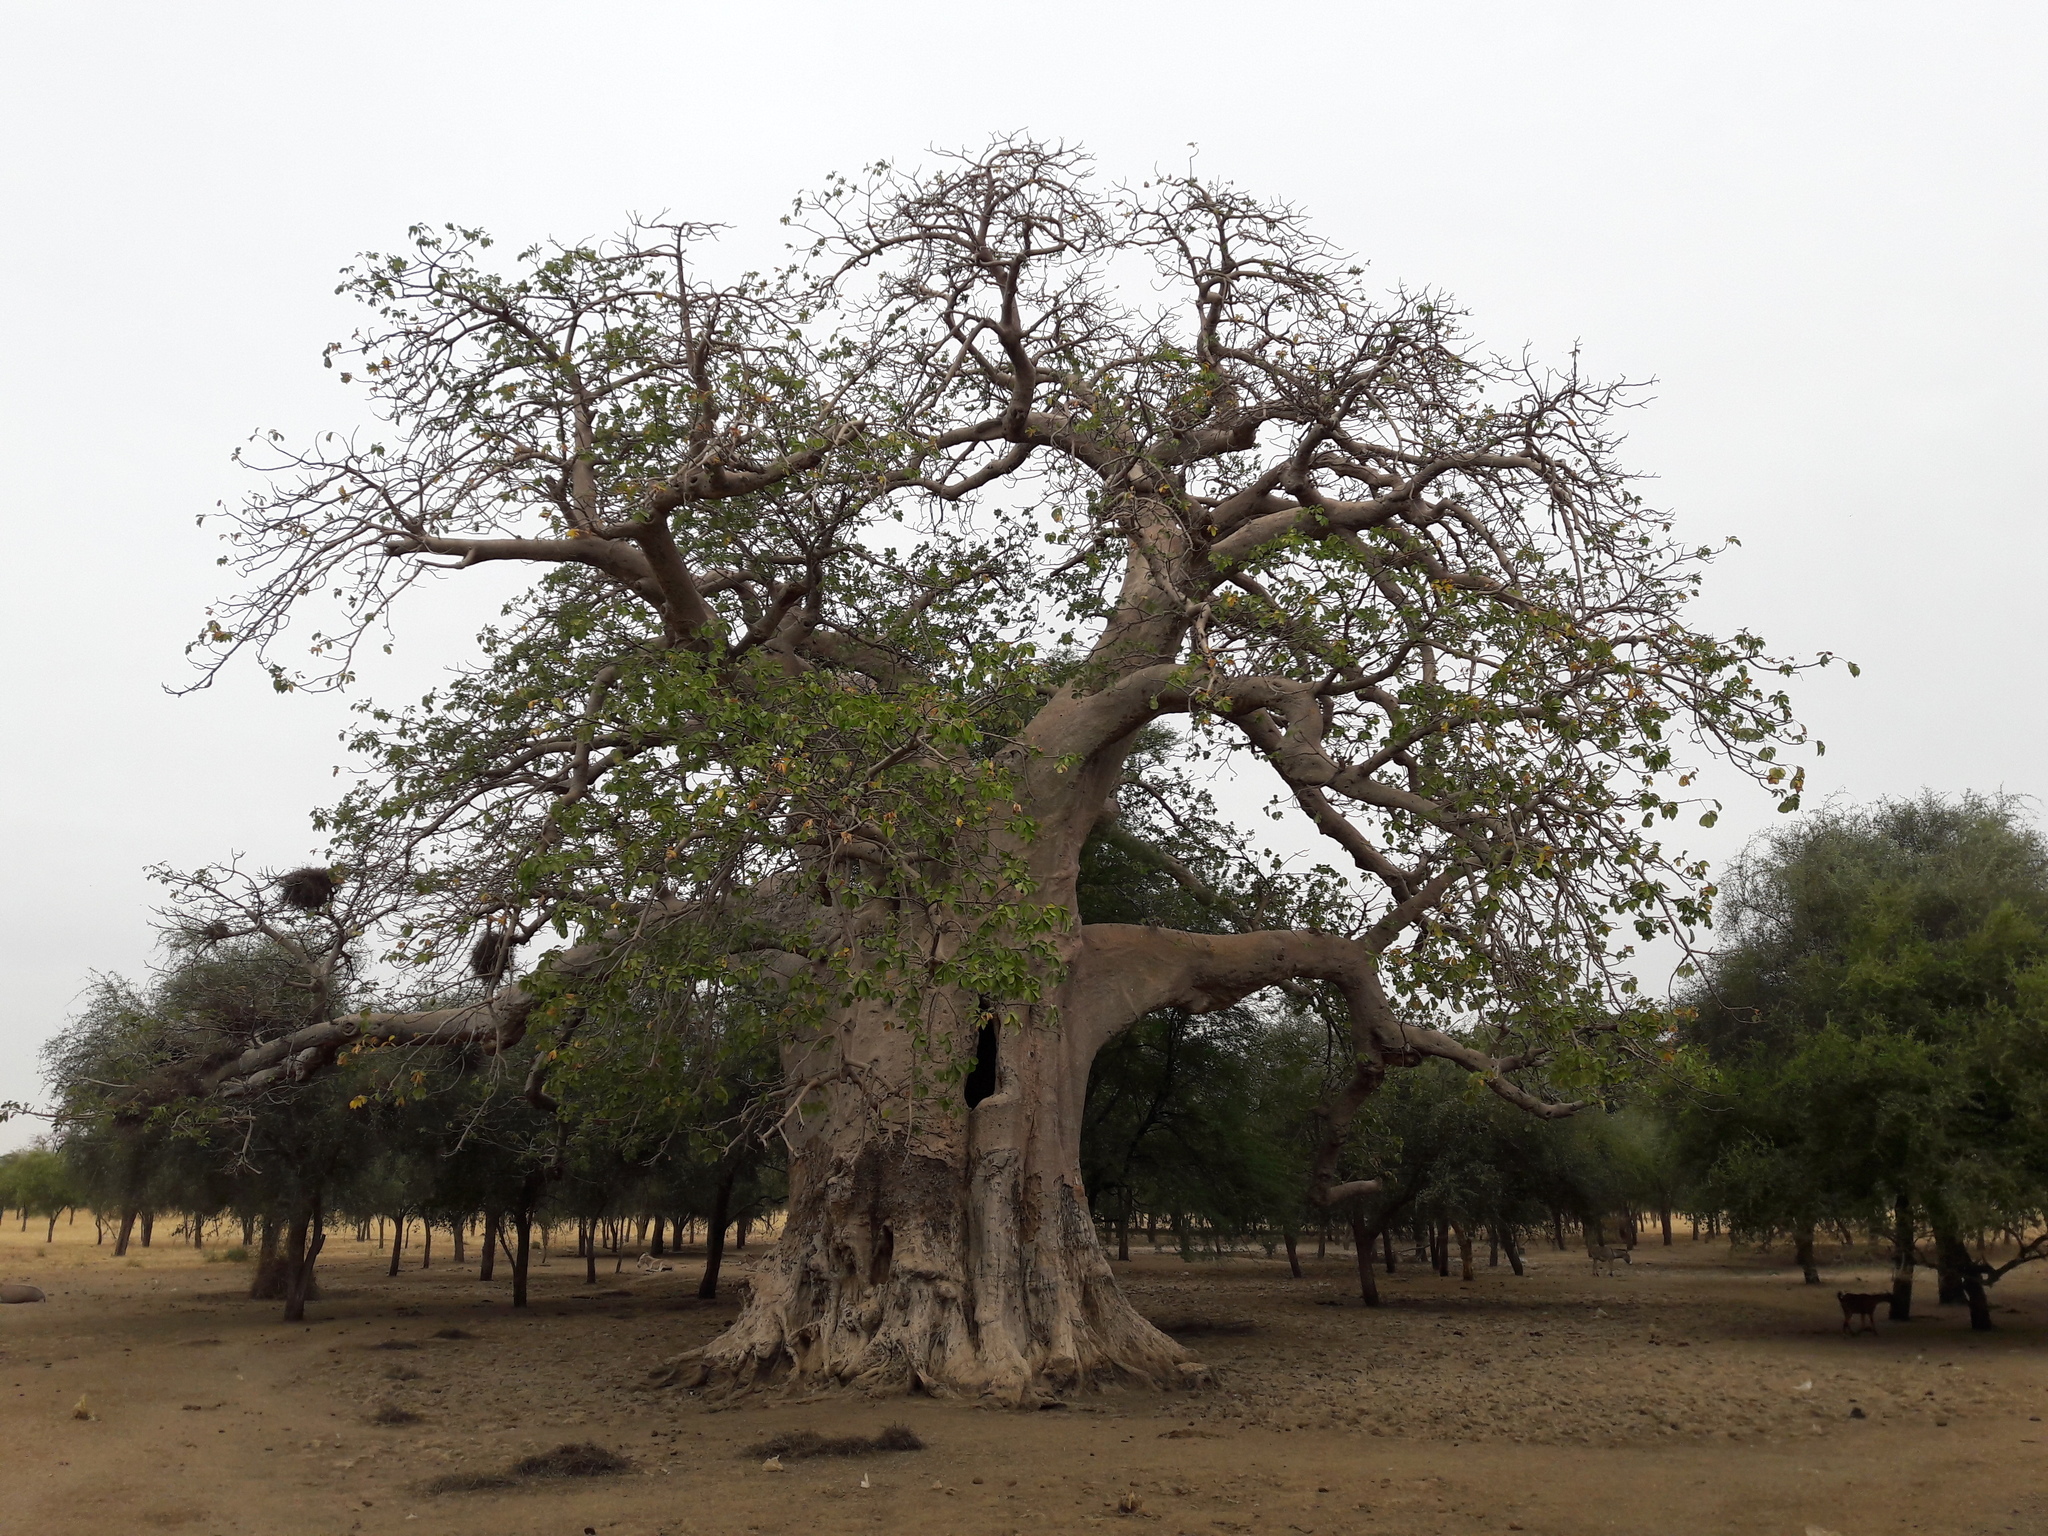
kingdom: Plantae
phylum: Tracheophyta
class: Magnoliopsida
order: Malvales
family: Malvaceae
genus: Adansonia
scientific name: Adansonia digitata
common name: Dead-rat-tree
